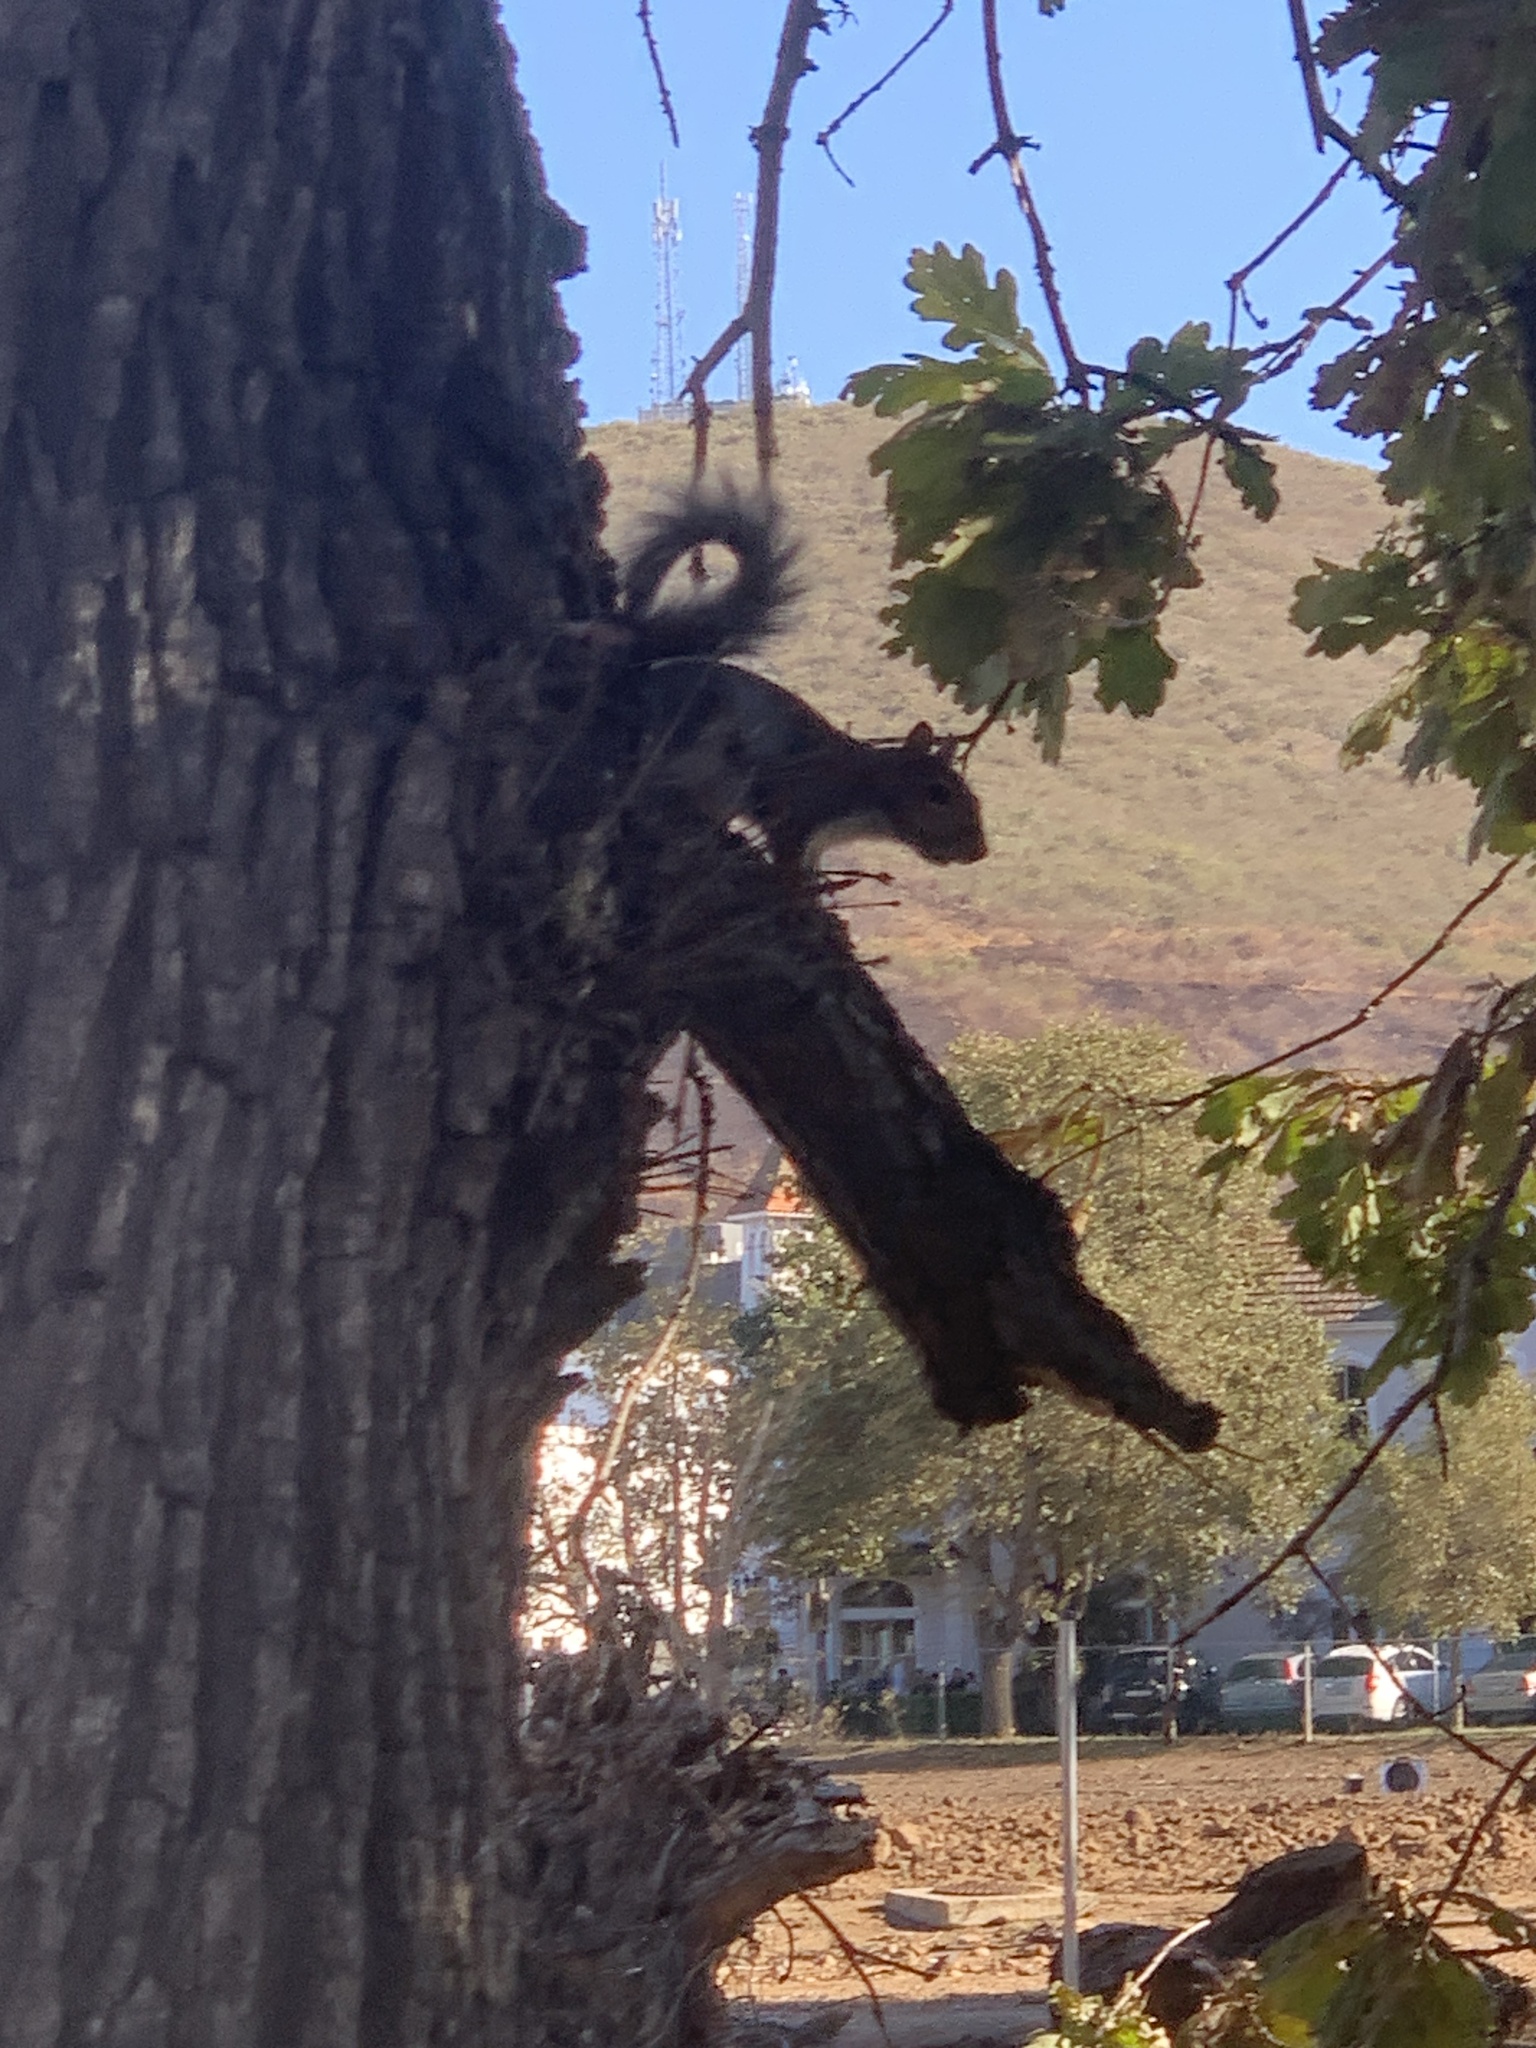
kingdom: Animalia
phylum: Chordata
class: Mammalia
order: Rodentia
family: Sciuridae
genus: Sciurus
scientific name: Sciurus carolinensis
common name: Eastern gray squirrel
